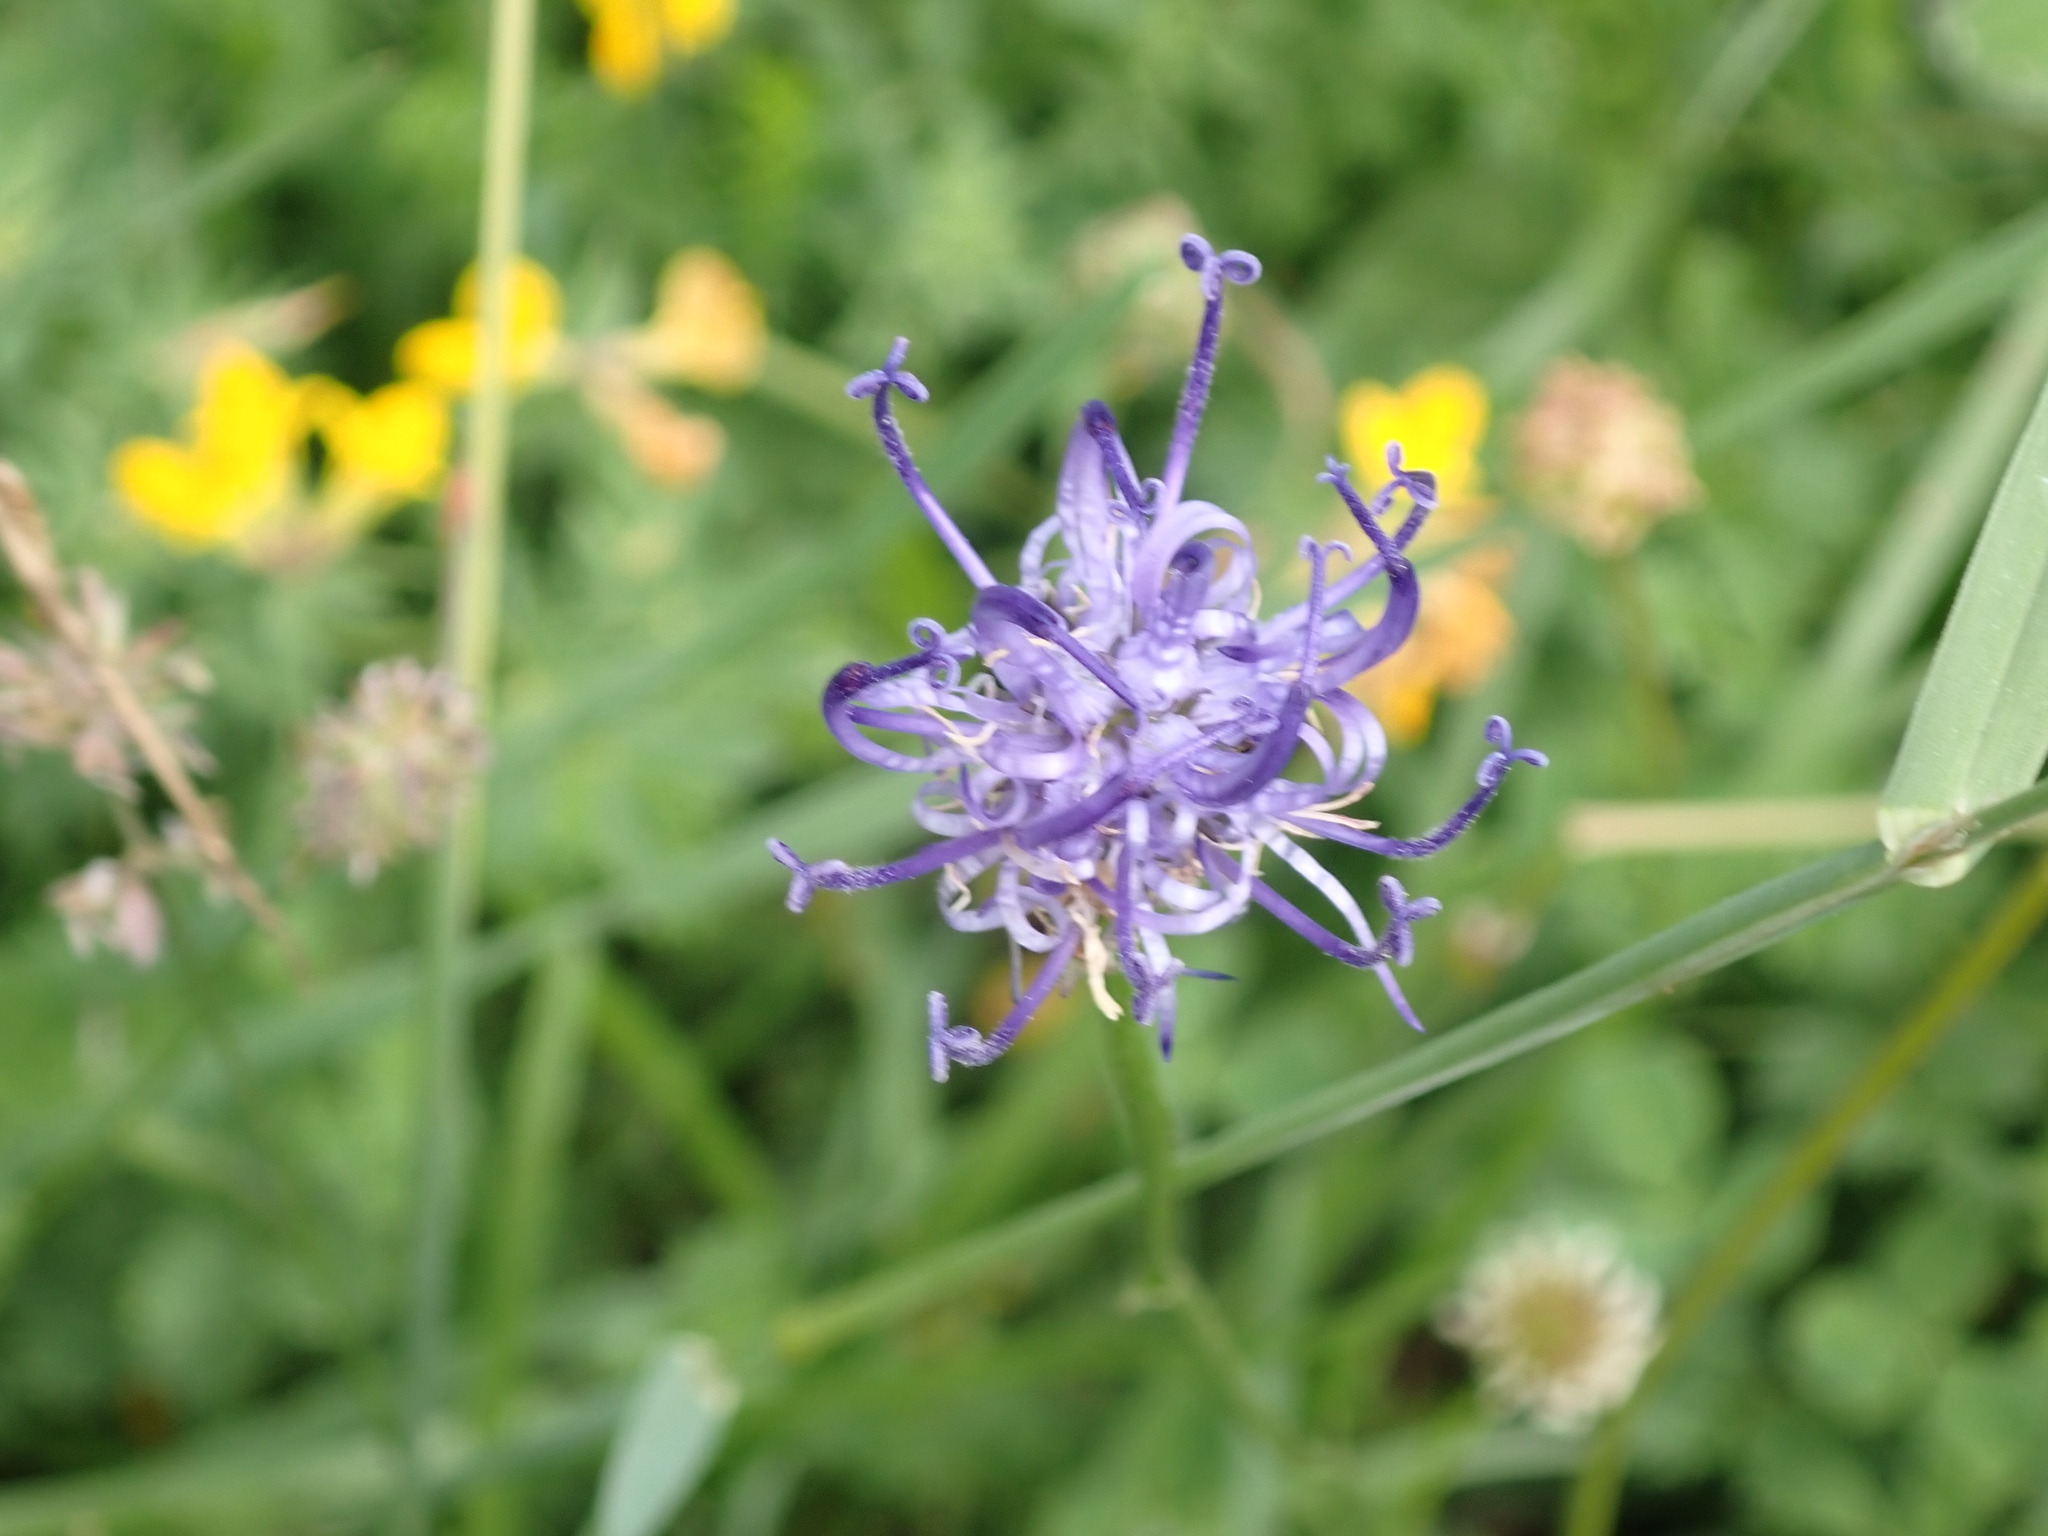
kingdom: Plantae
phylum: Tracheophyta
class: Magnoliopsida
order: Asterales
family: Campanulaceae
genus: Phyteuma
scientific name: Phyteuma hemisphaericum
